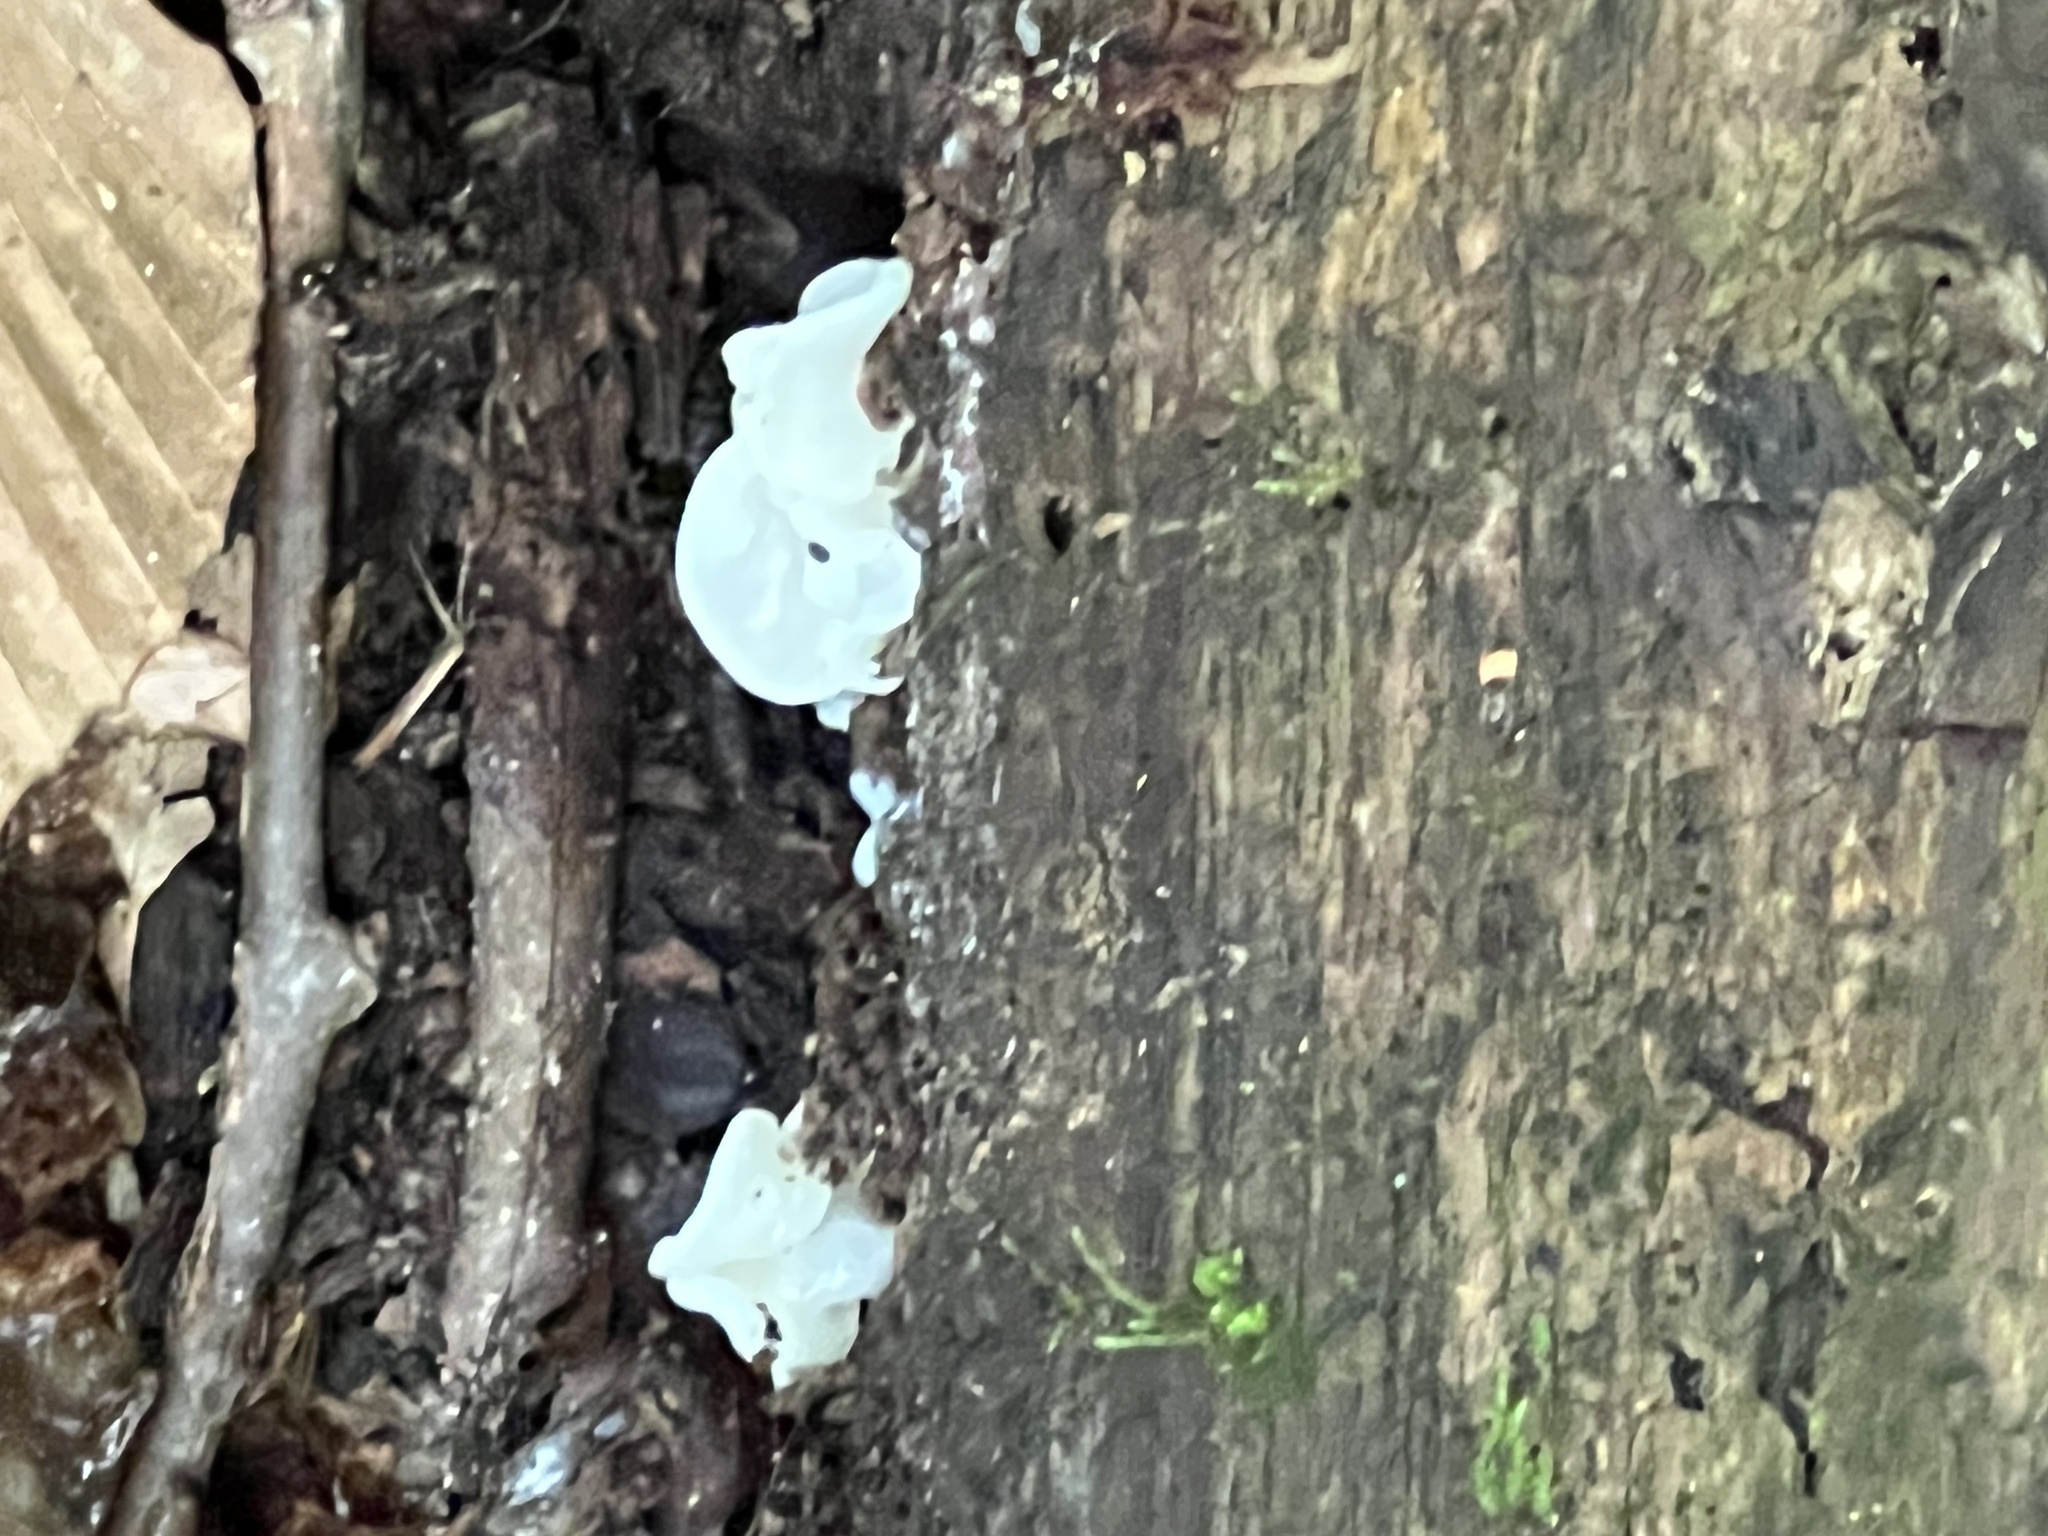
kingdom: Fungi
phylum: Basidiomycota
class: Agaricomycetes
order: Auriculariales
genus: Ductifera
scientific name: Ductifera pululahuana
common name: White jelly fungus
